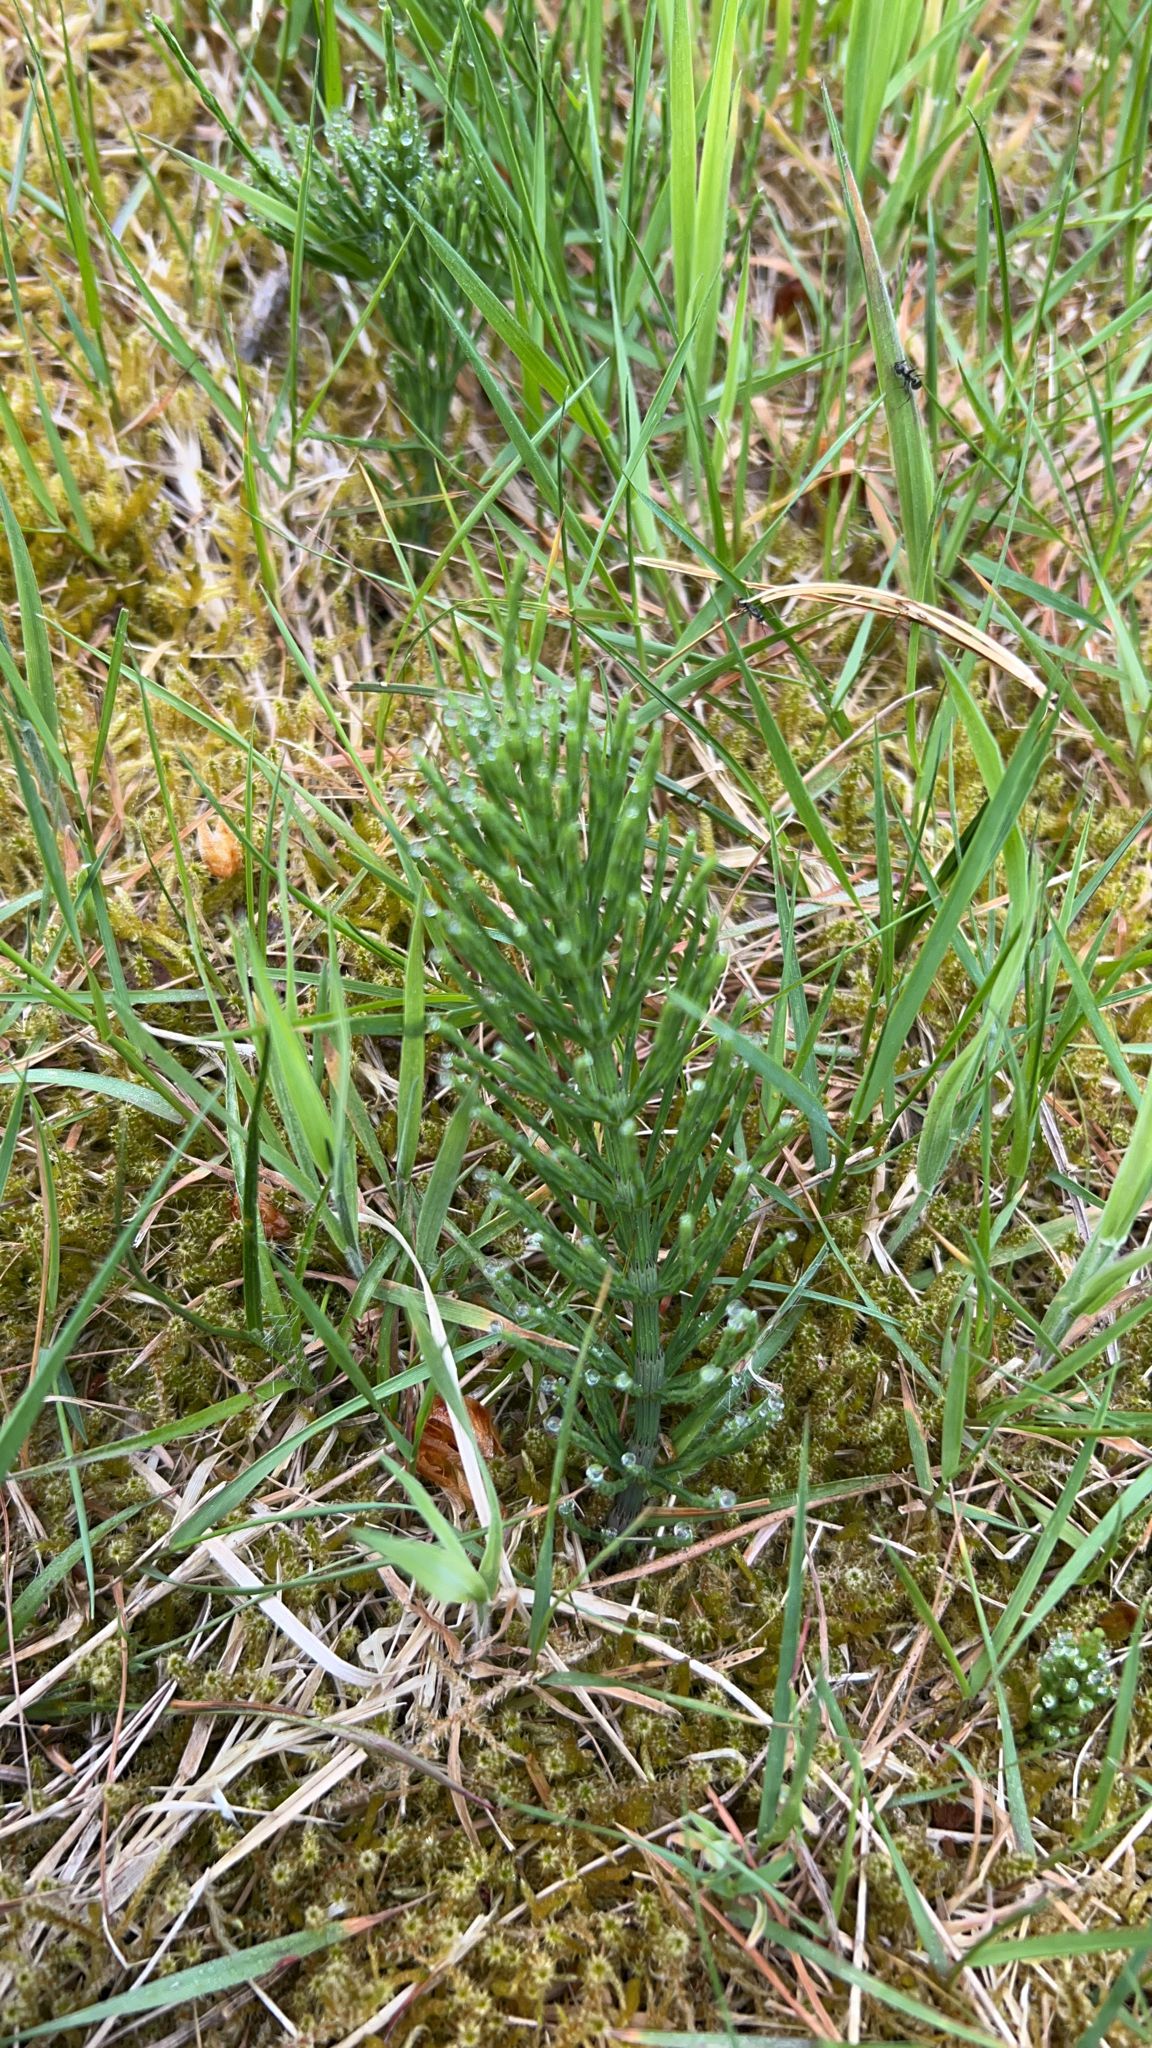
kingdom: Plantae
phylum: Tracheophyta
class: Polypodiopsida
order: Equisetales
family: Equisetaceae
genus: Equisetum
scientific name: Equisetum arvense
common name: Field horsetail
